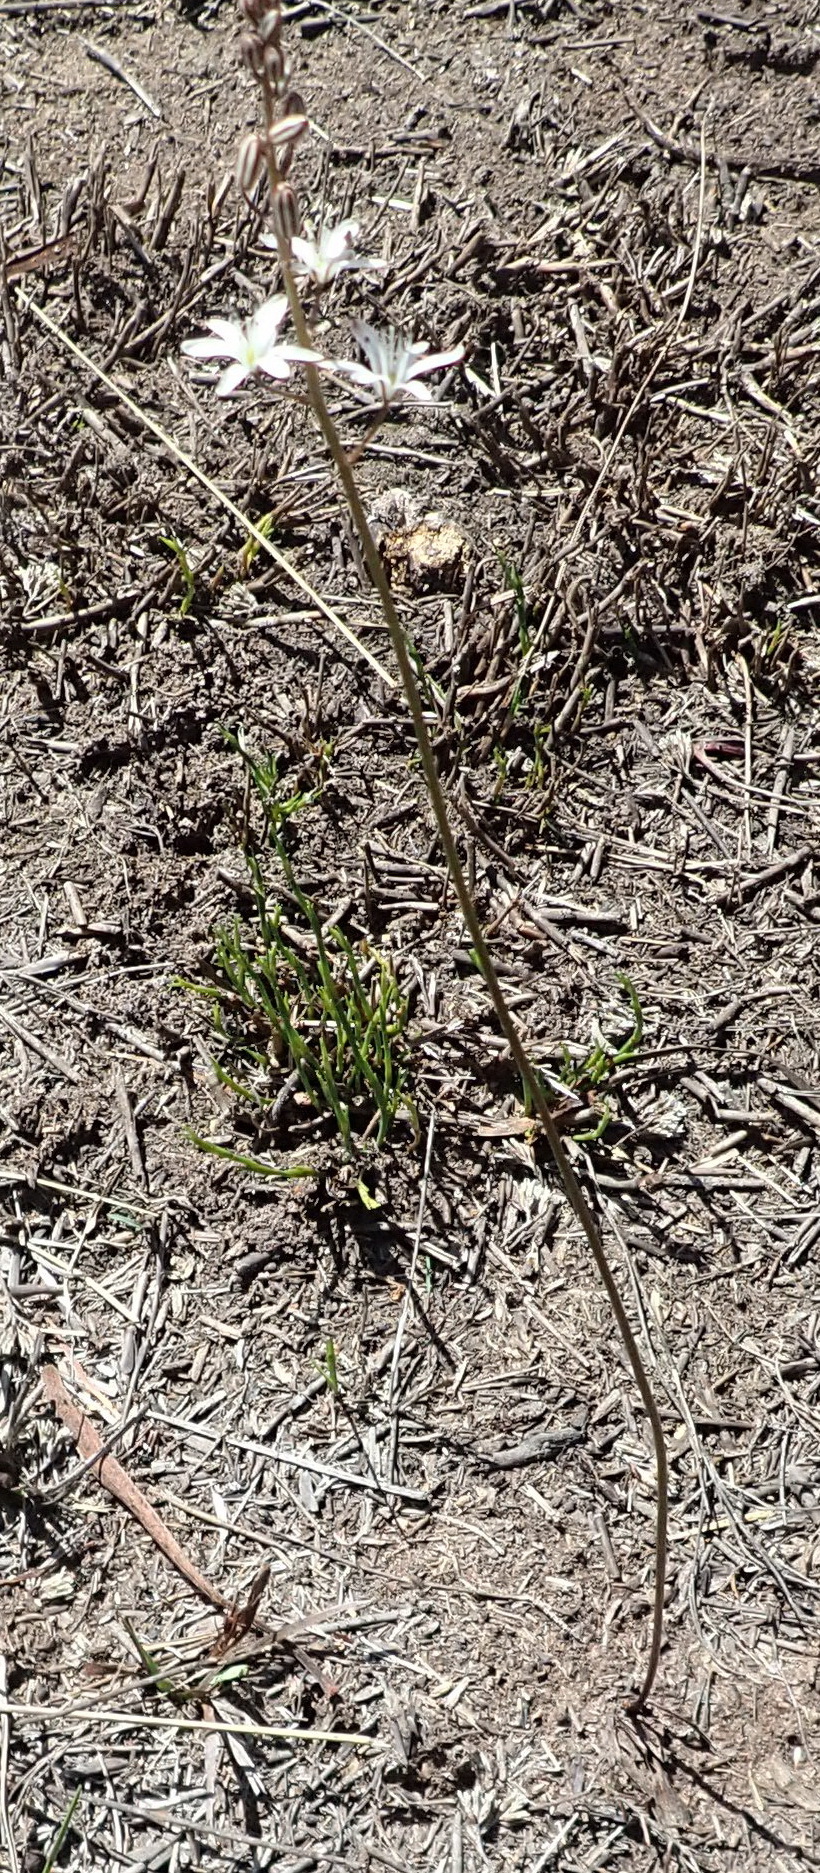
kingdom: Plantae
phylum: Tracheophyta
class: Liliopsida
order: Asparagales
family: Asparagaceae
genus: Eriospermum
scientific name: Eriospermum dielsianum
